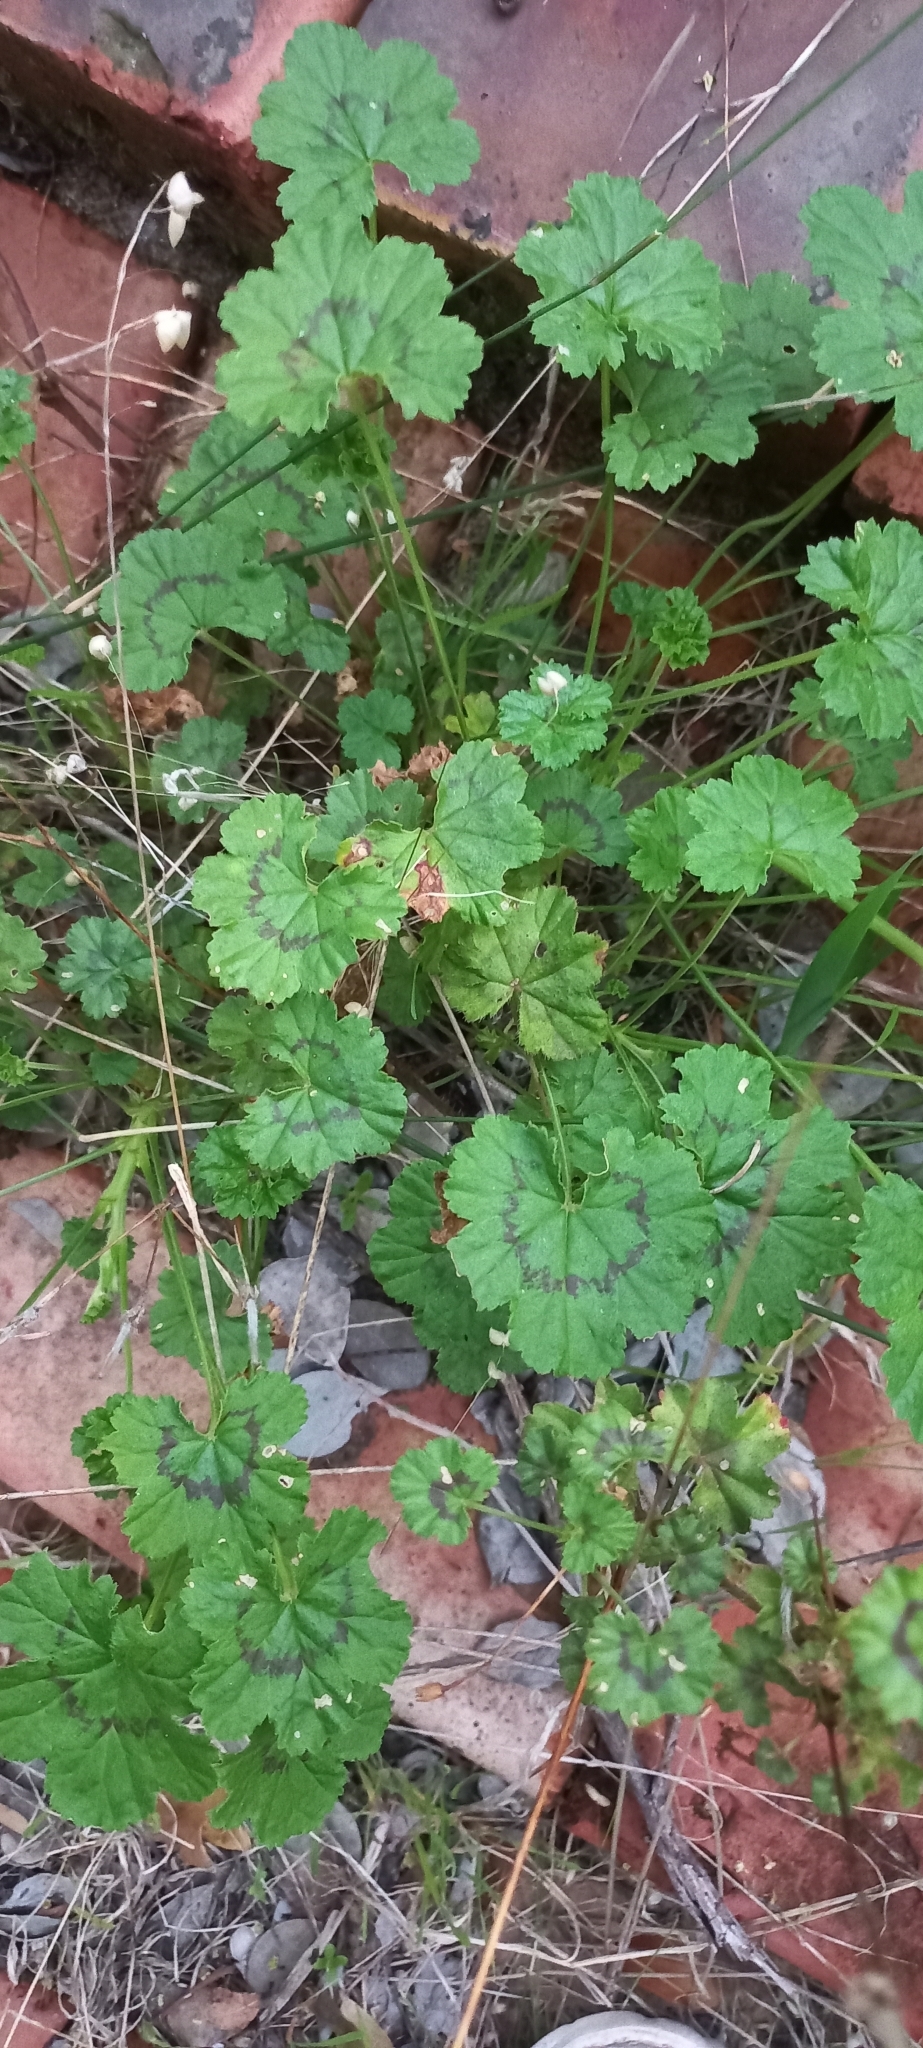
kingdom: Plantae
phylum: Tracheophyta
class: Magnoliopsida
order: Geraniales
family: Geraniaceae
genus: Pelargonium
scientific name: Pelargonium elongatum
